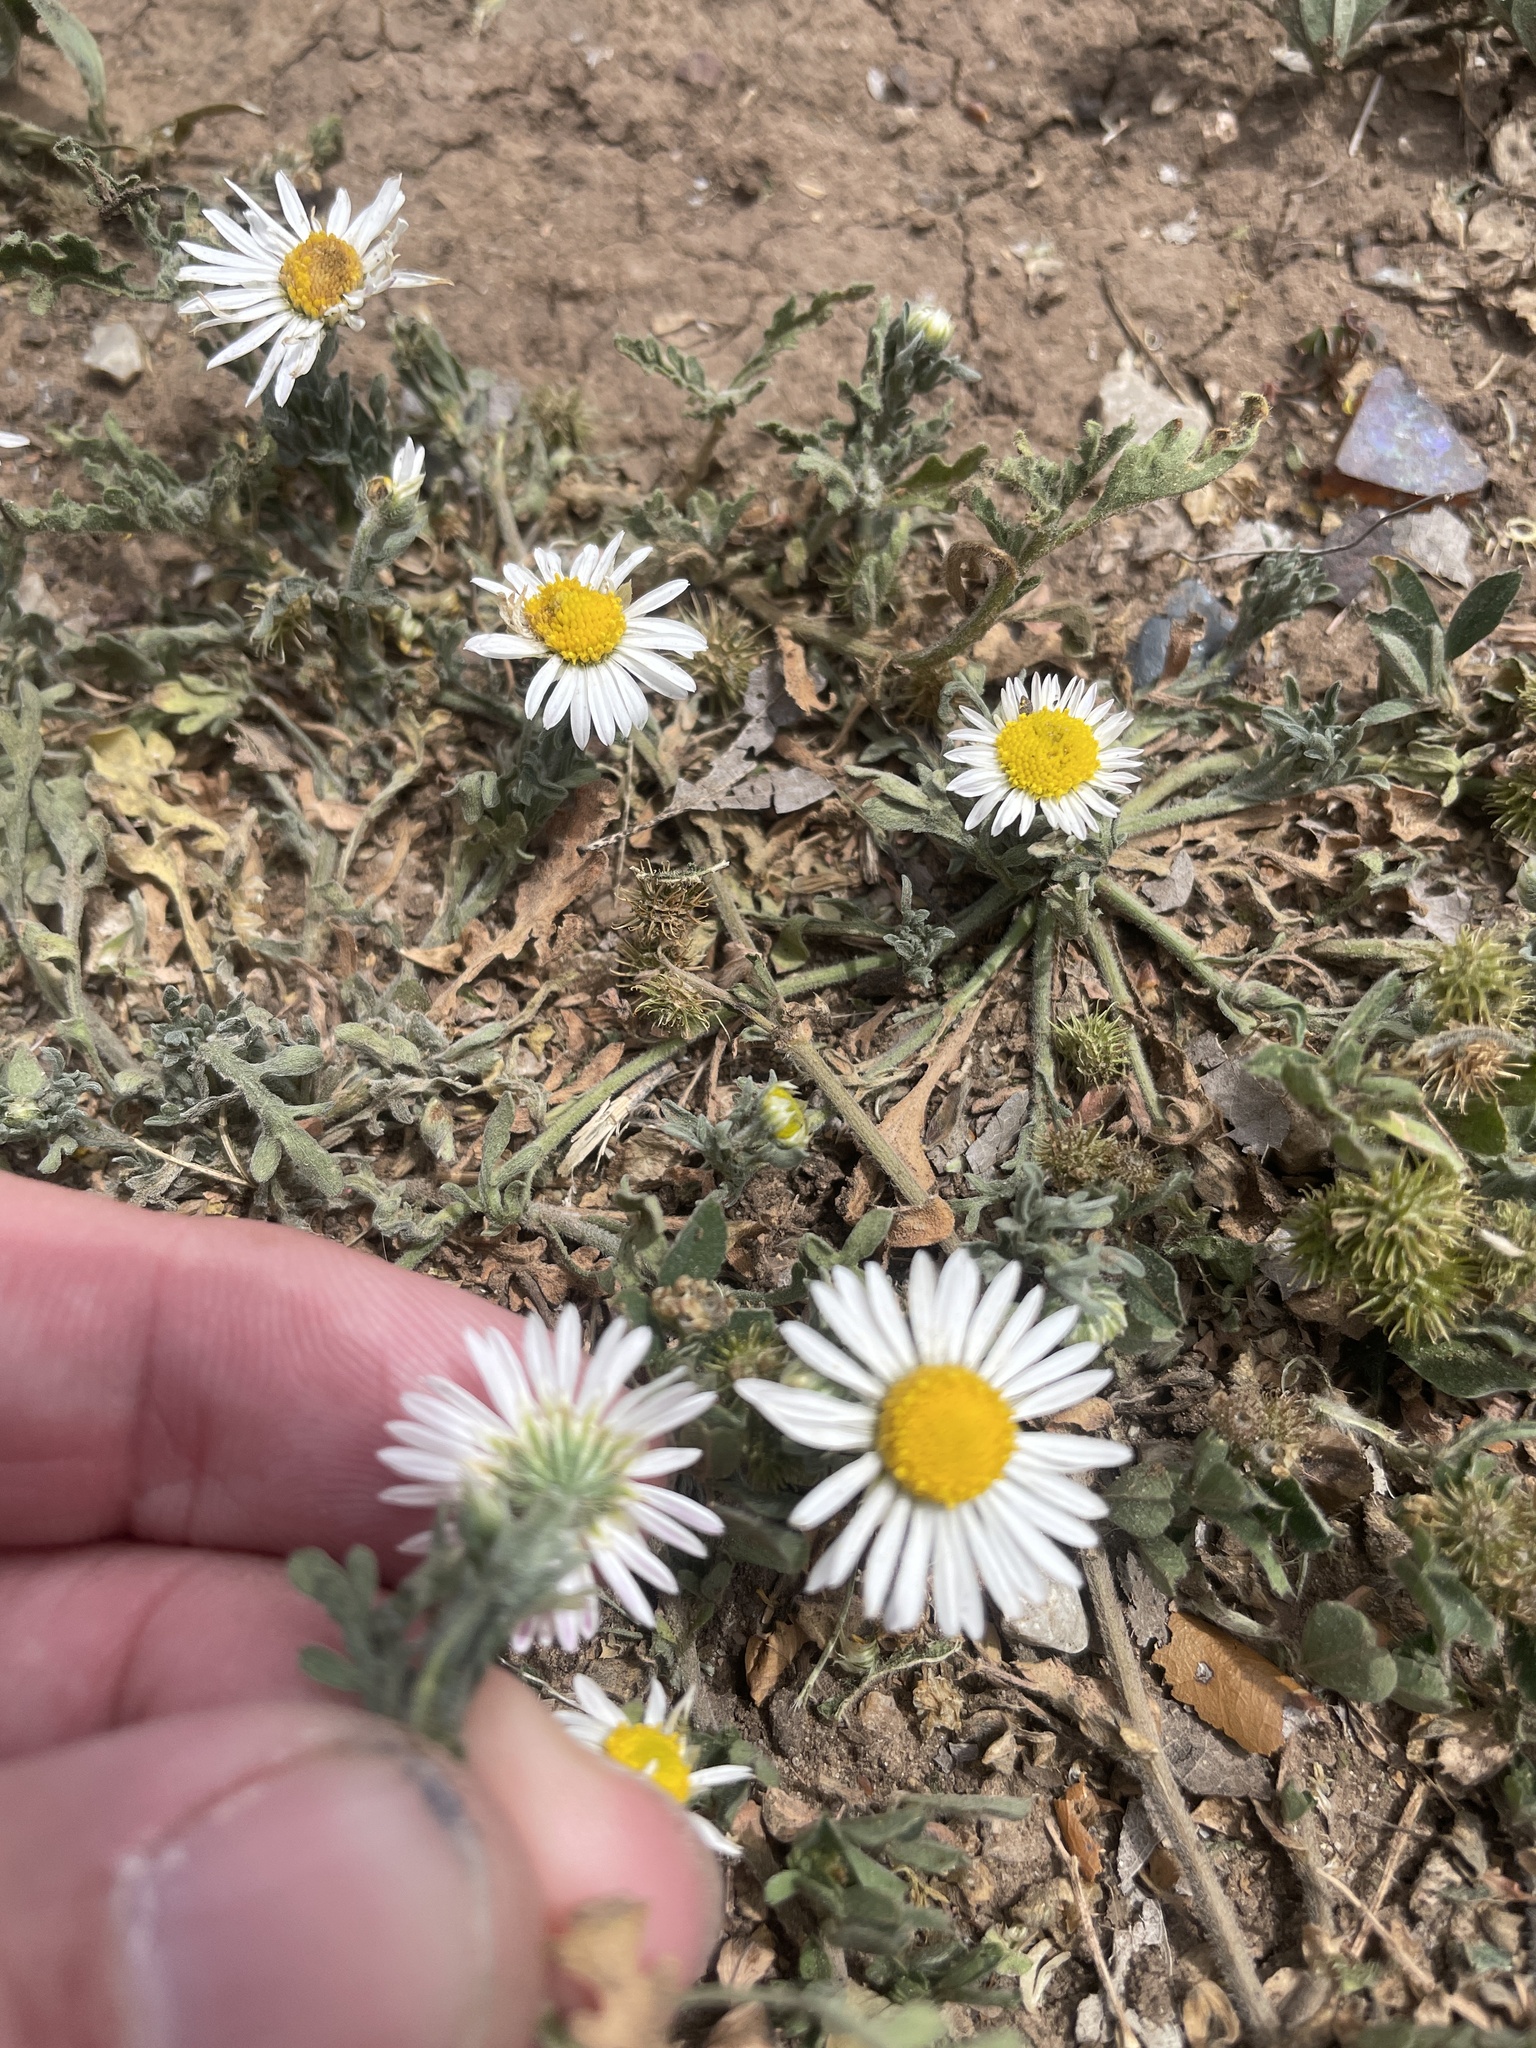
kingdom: Plantae
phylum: Tracheophyta
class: Magnoliopsida
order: Asterales
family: Asteraceae
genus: Aphanostephus
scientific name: Aphanostephus ramosissimus
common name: Plains lazy daisy
